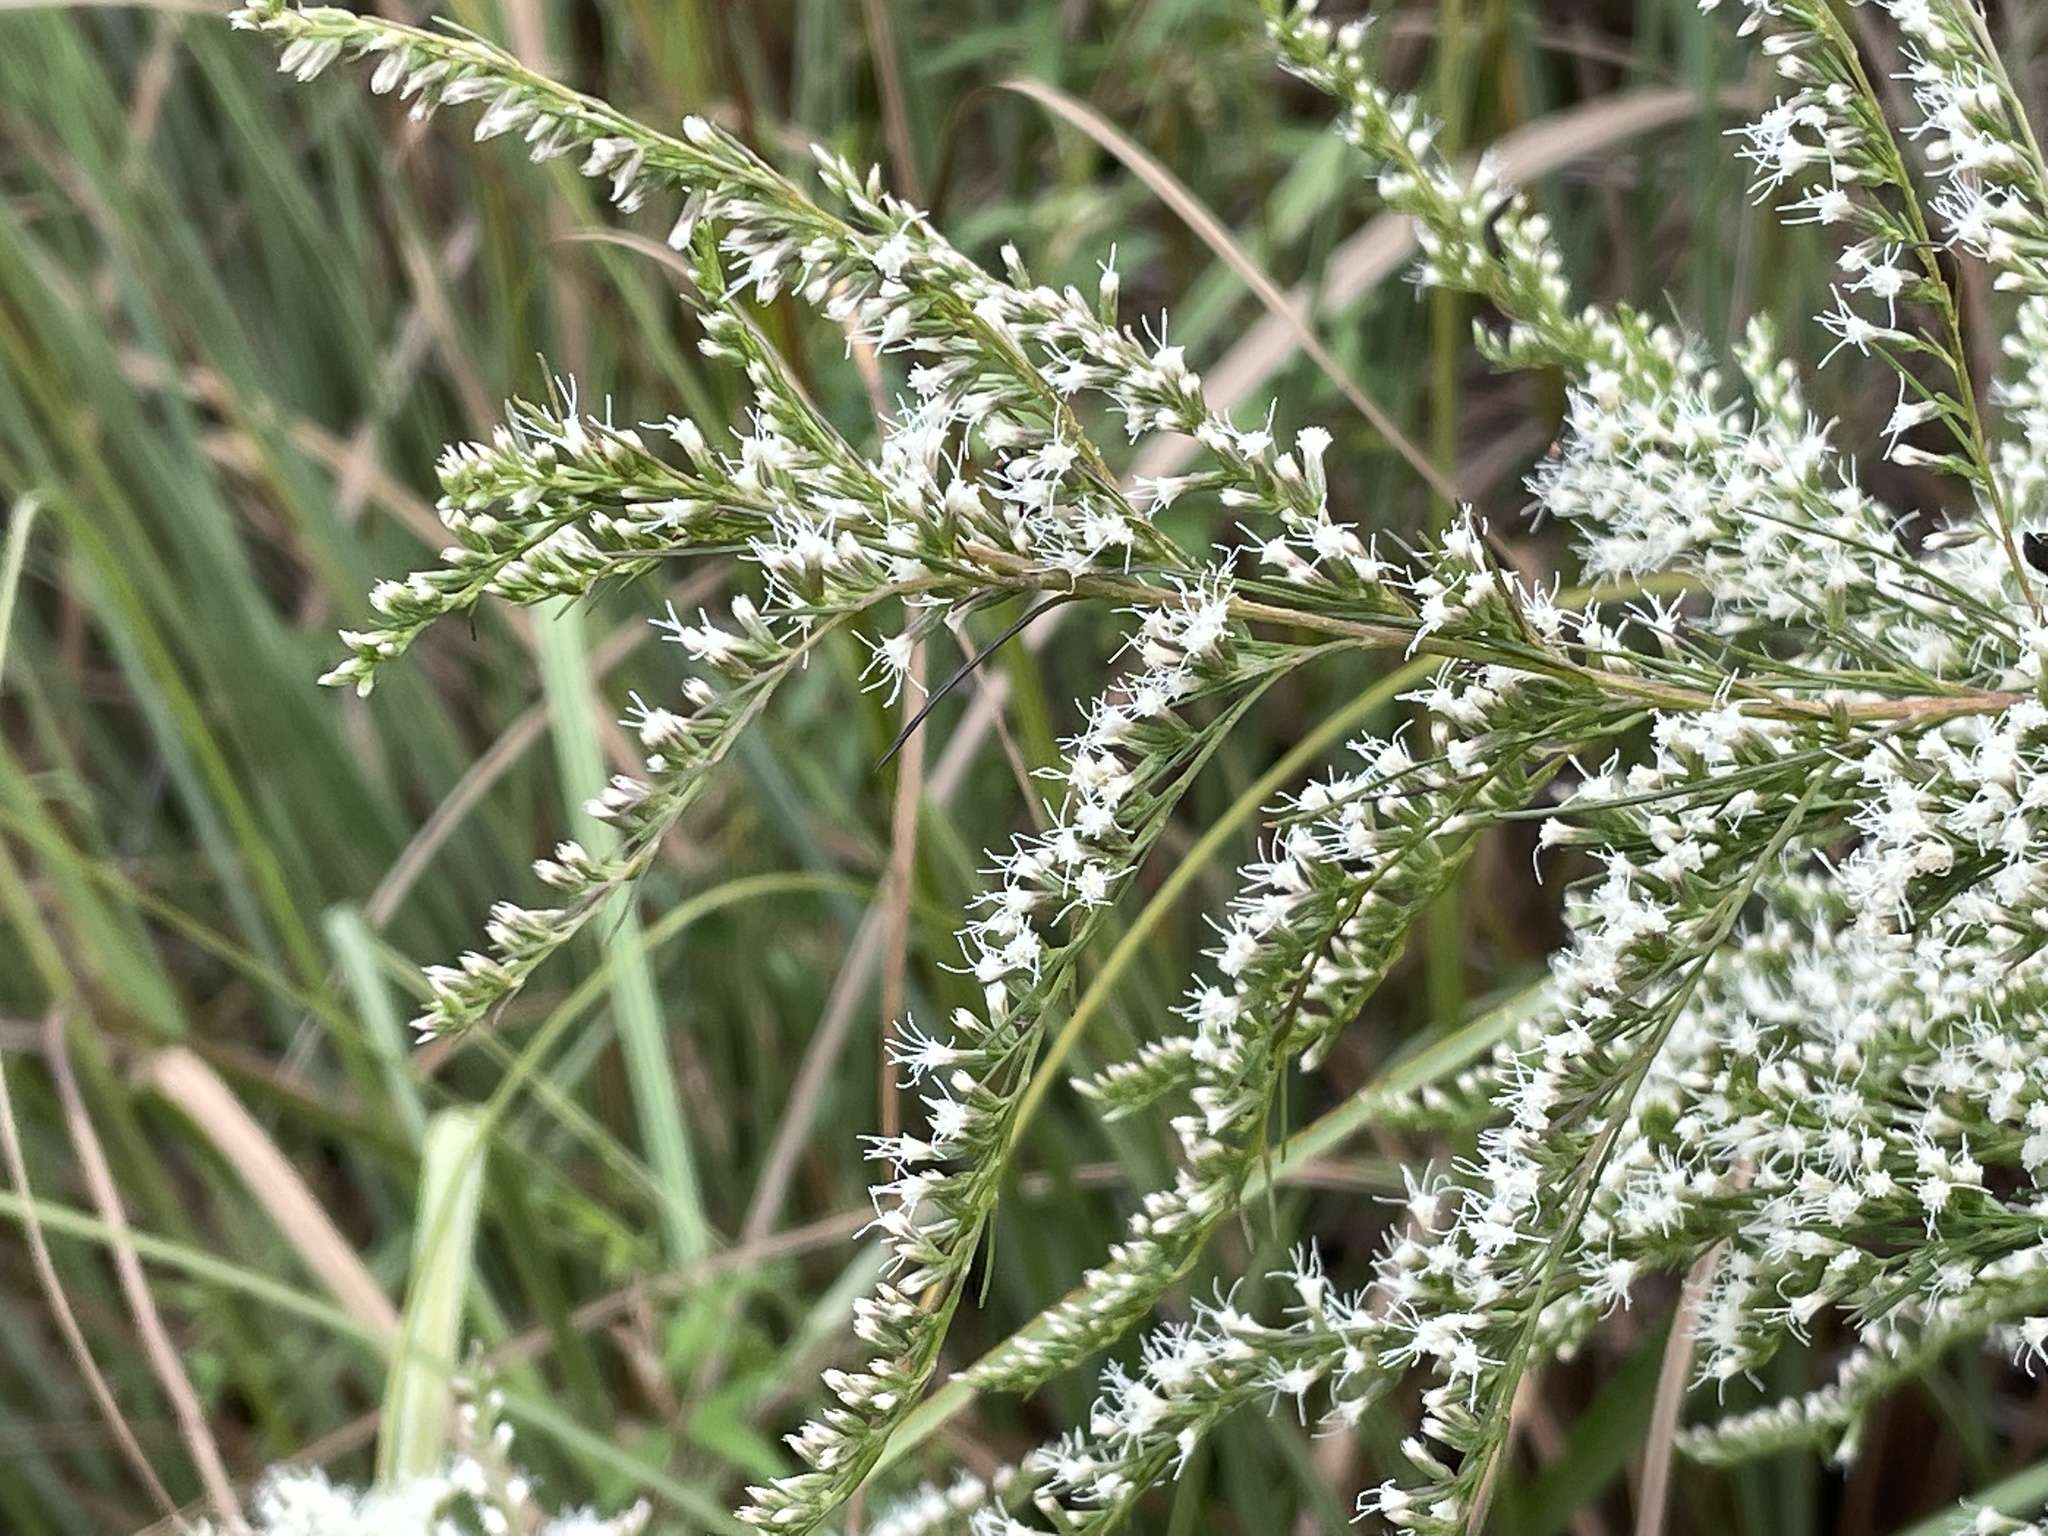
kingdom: Plantae
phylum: Tracheophyta
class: Magnoliopsida
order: Asterales
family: Asteraceae
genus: Eupatorium
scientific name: Eupatorium leptophyllum
